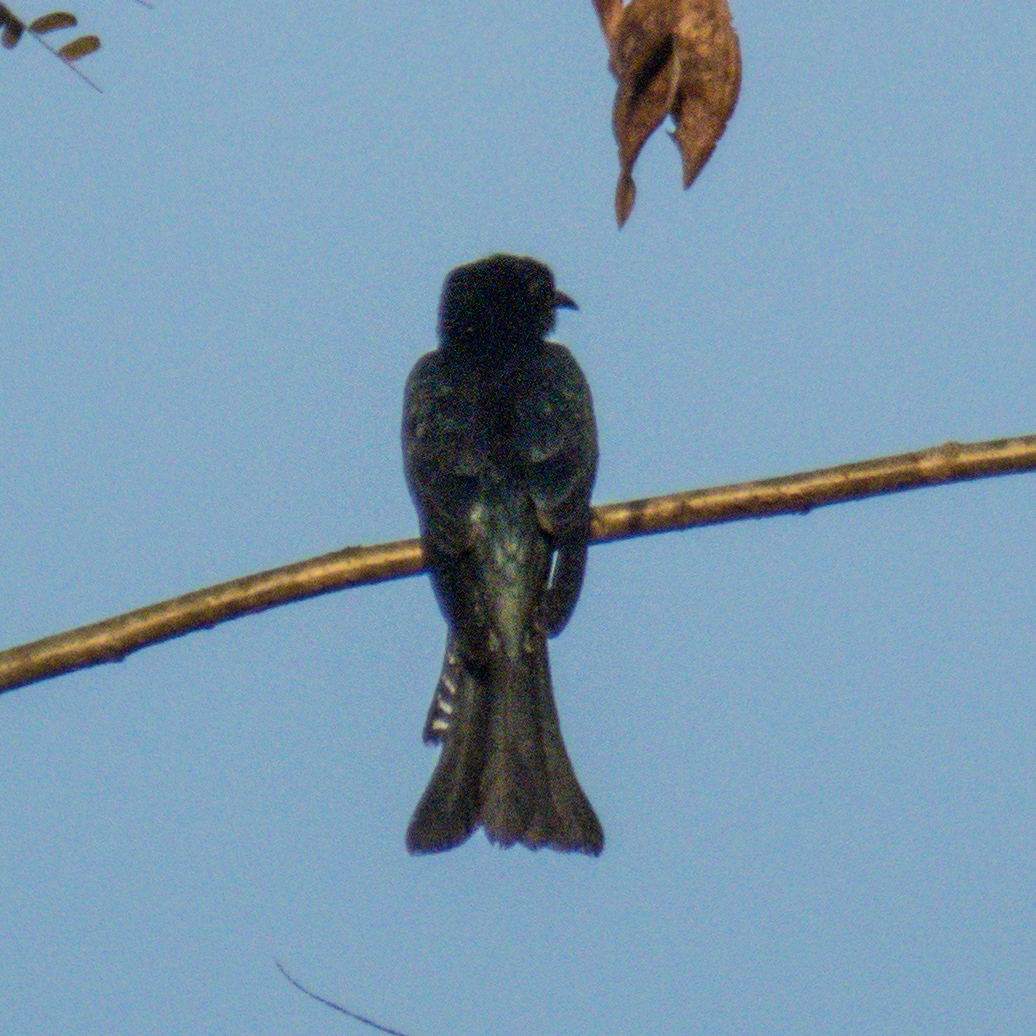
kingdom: Animalia
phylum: Chordata
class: Aves
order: Cuculiformes
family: Cuculidae
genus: Surniculus
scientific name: Surniculus lugubris
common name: Square-tailed drongo-cuckoo
